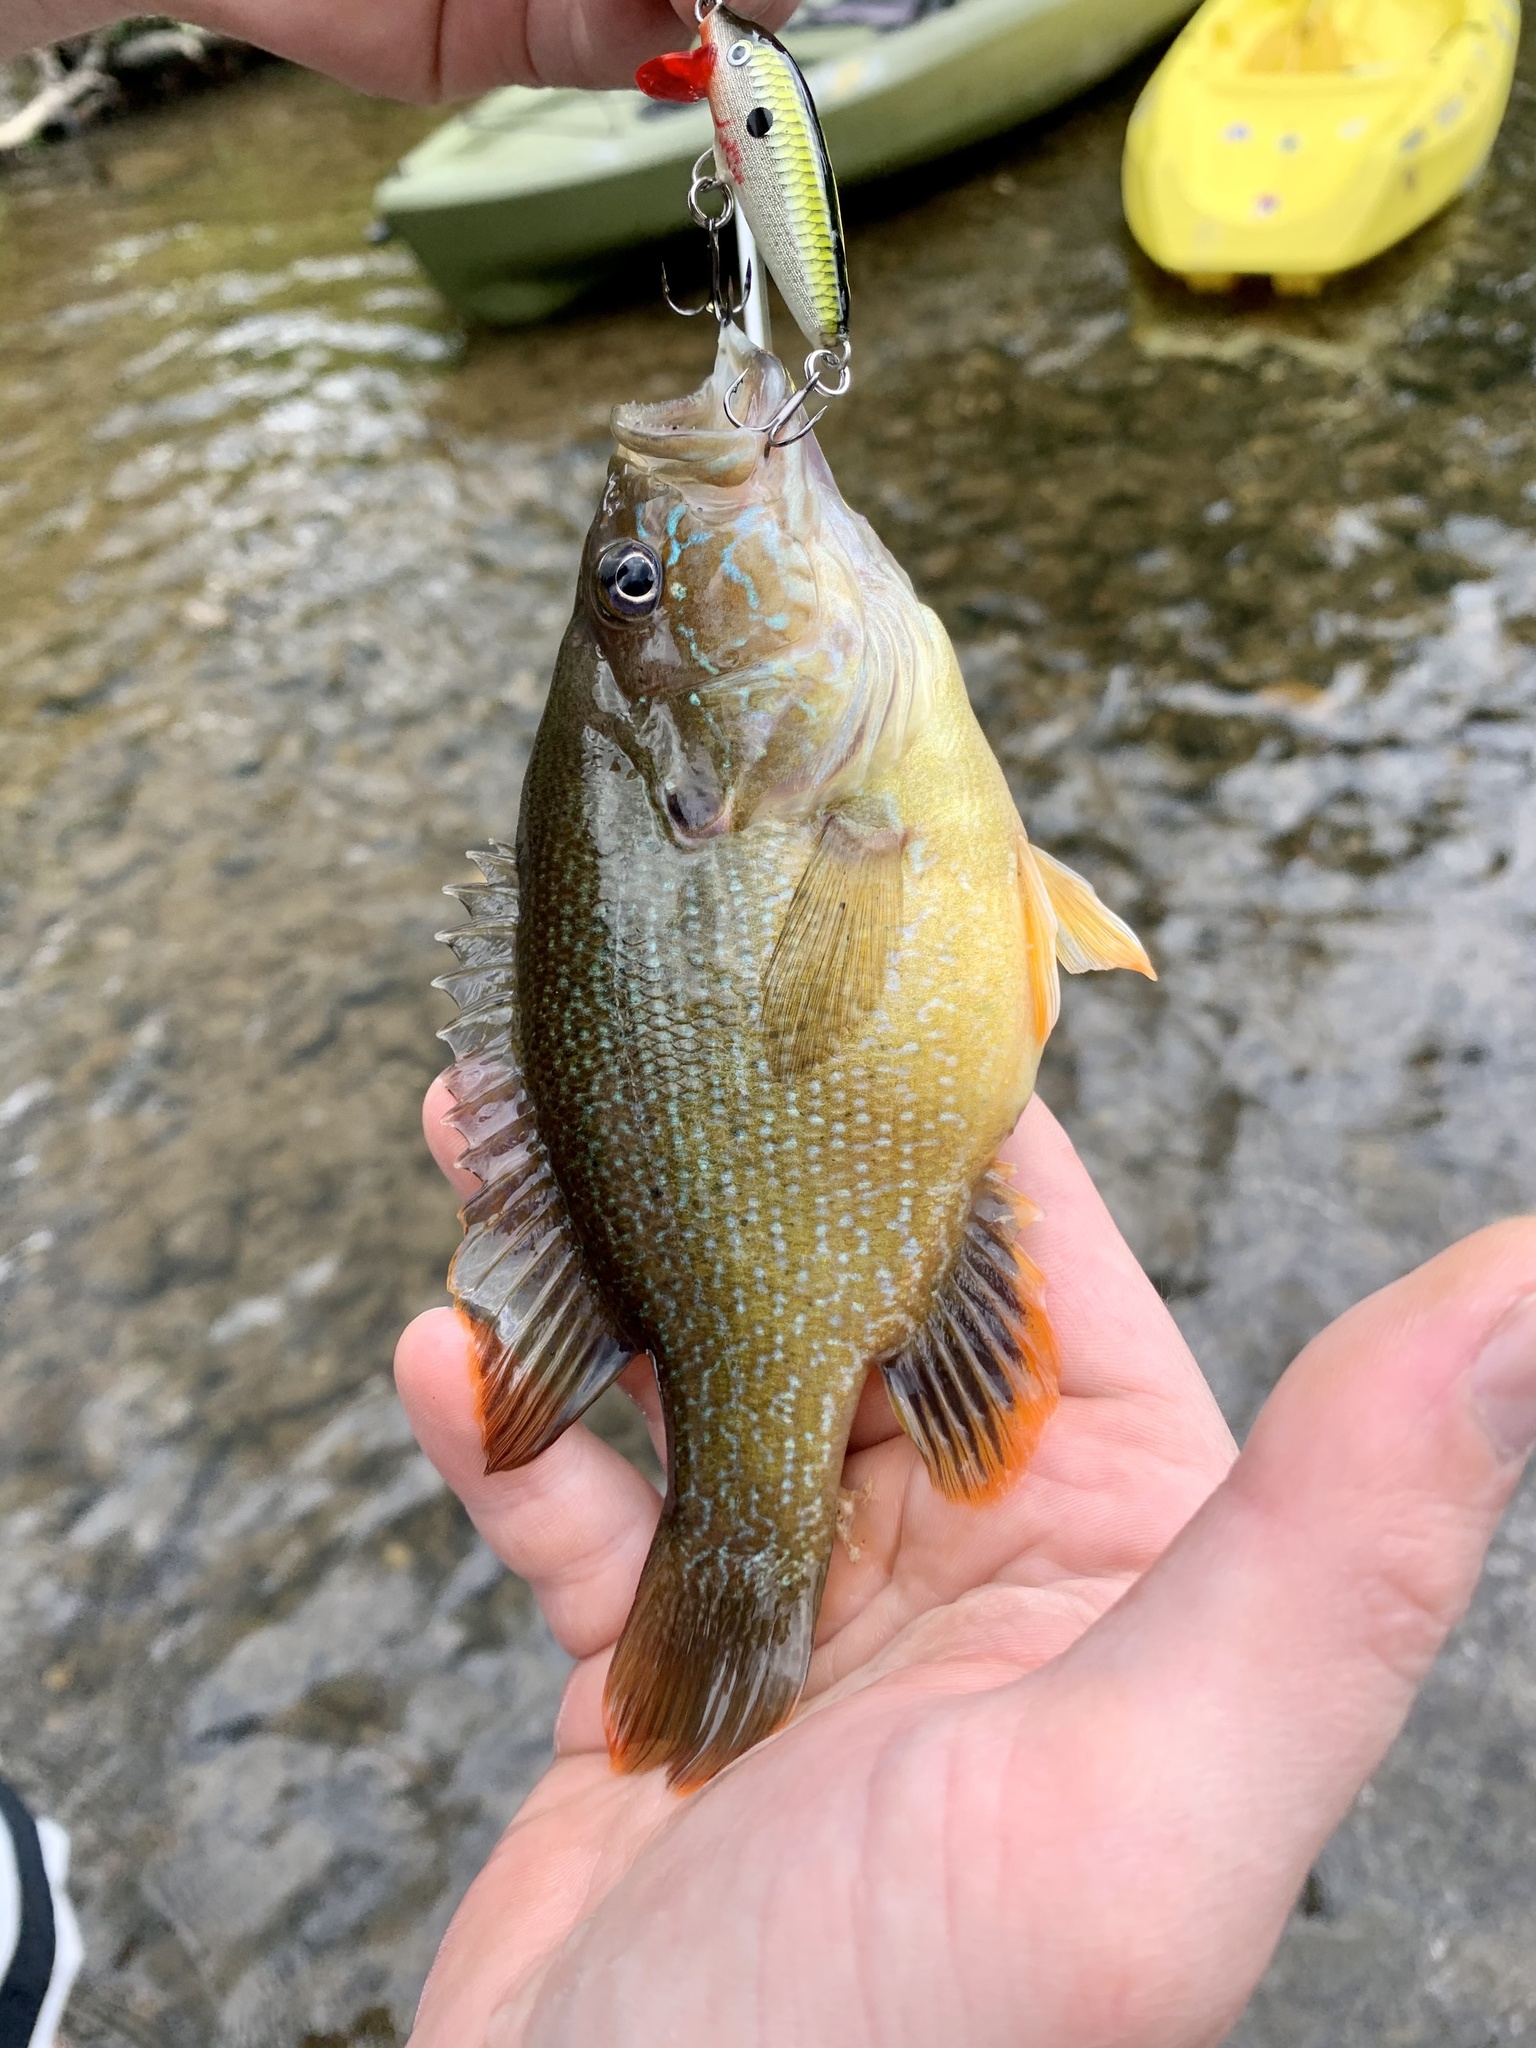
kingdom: Animalia
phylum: Chordata
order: Perciformes
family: Centrarchidae
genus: Lepomis
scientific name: Lepomis cyanellus
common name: Green sunfish
